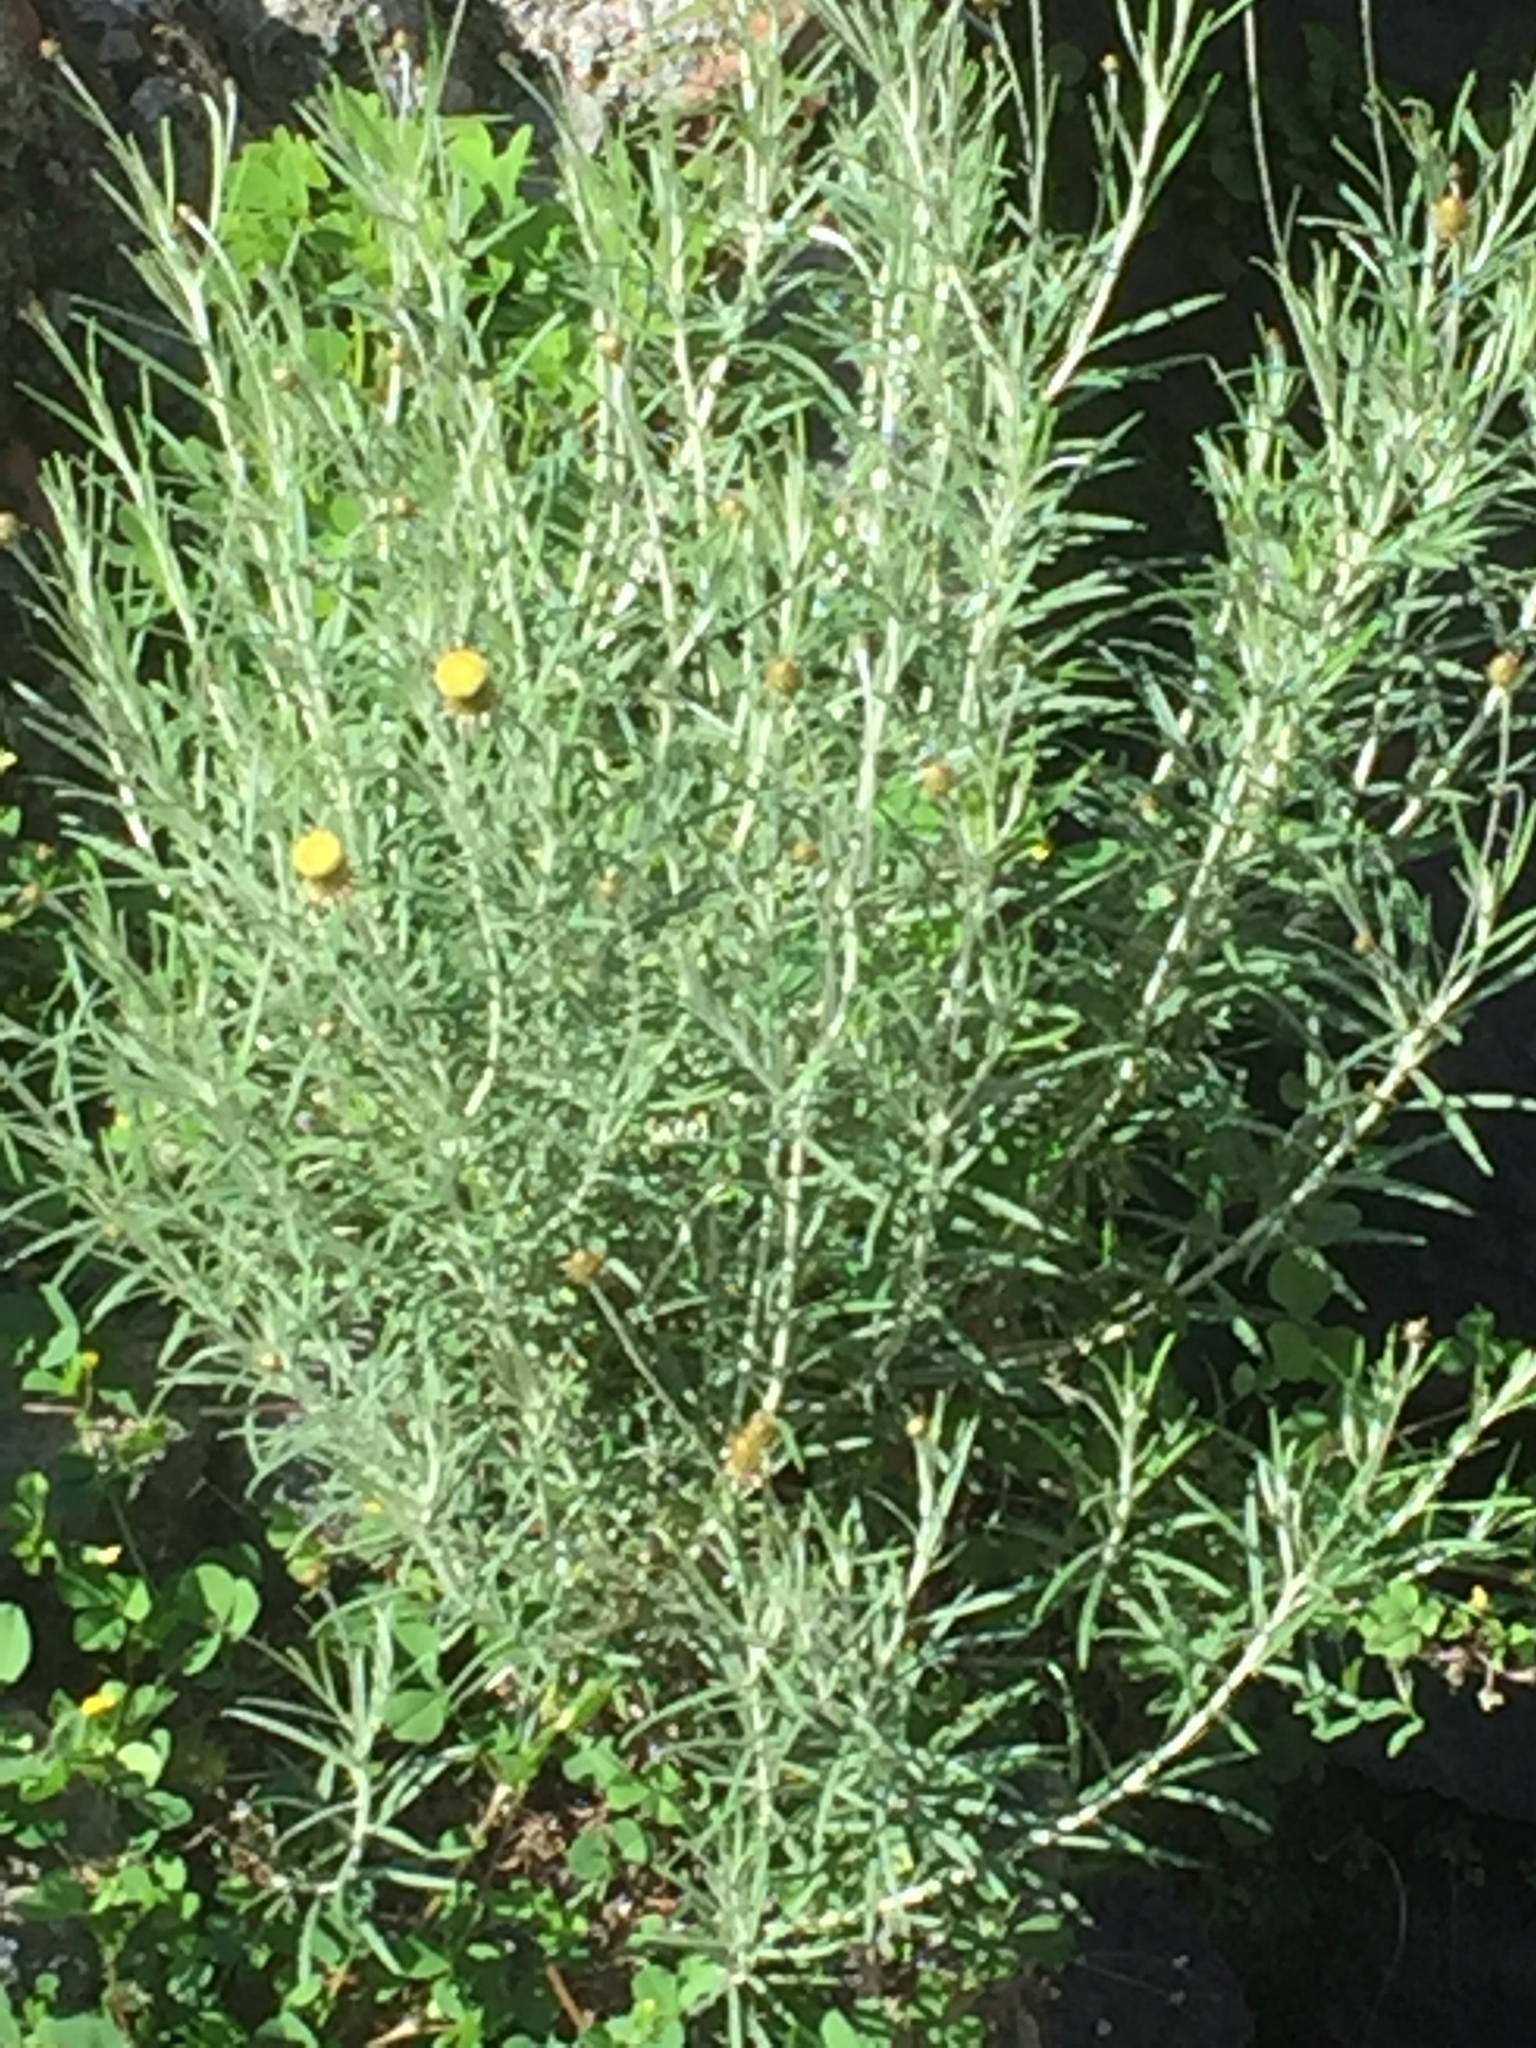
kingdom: Plantae
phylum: Tracheophyta
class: Magnoliopsida
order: Asterales
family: Asteraceae
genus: Phagnalon
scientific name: Phagnalon saxatile
